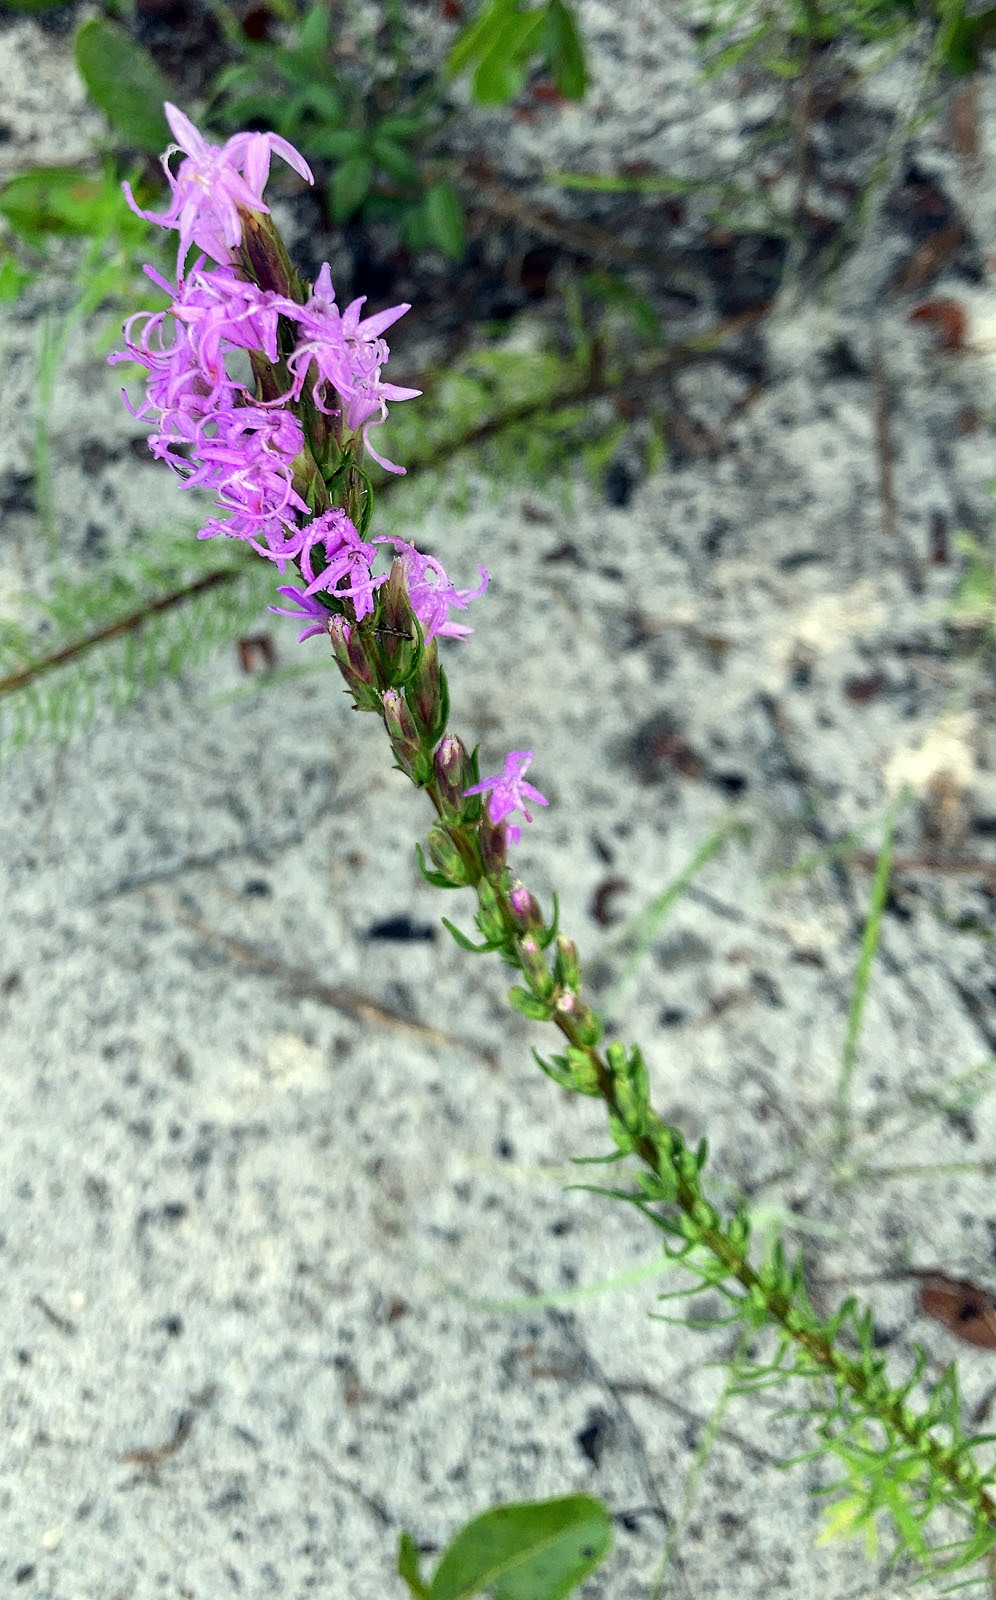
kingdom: Plantae
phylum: Tracheophyta
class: Magnoliopsida
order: Asterales
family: Asteraceae
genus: Liatris
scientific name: Liatris chapmanii
